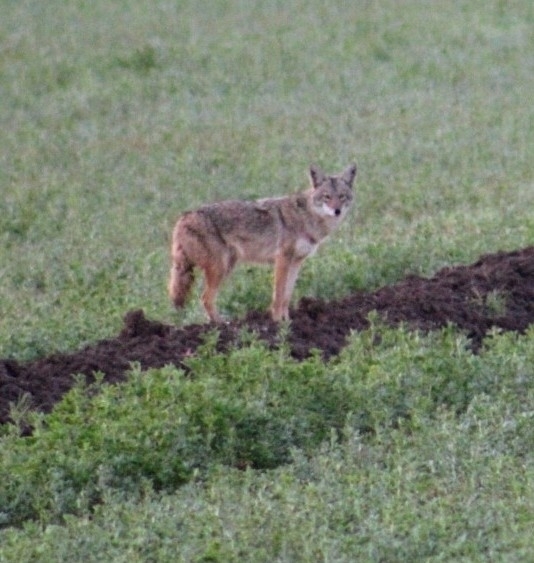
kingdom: Animalia
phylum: Chordata
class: Mammalia
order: Carnivora
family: Canidae
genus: Canis
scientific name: Canis latrans
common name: Coyote
